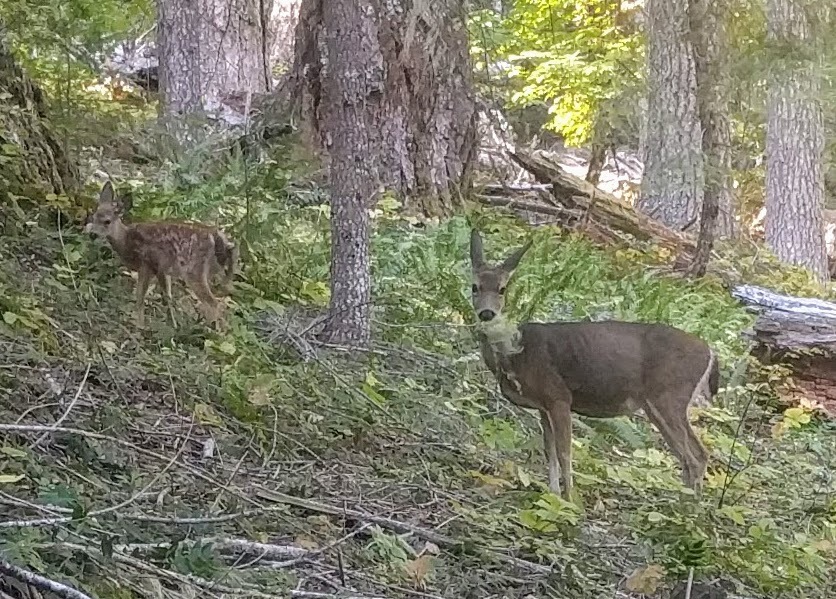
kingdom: Animalia
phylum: Chordata
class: Mammalia
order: Artiodactyla
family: Cervidae
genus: Odocoileus
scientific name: Odocoileus hemionus
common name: Mule deer
